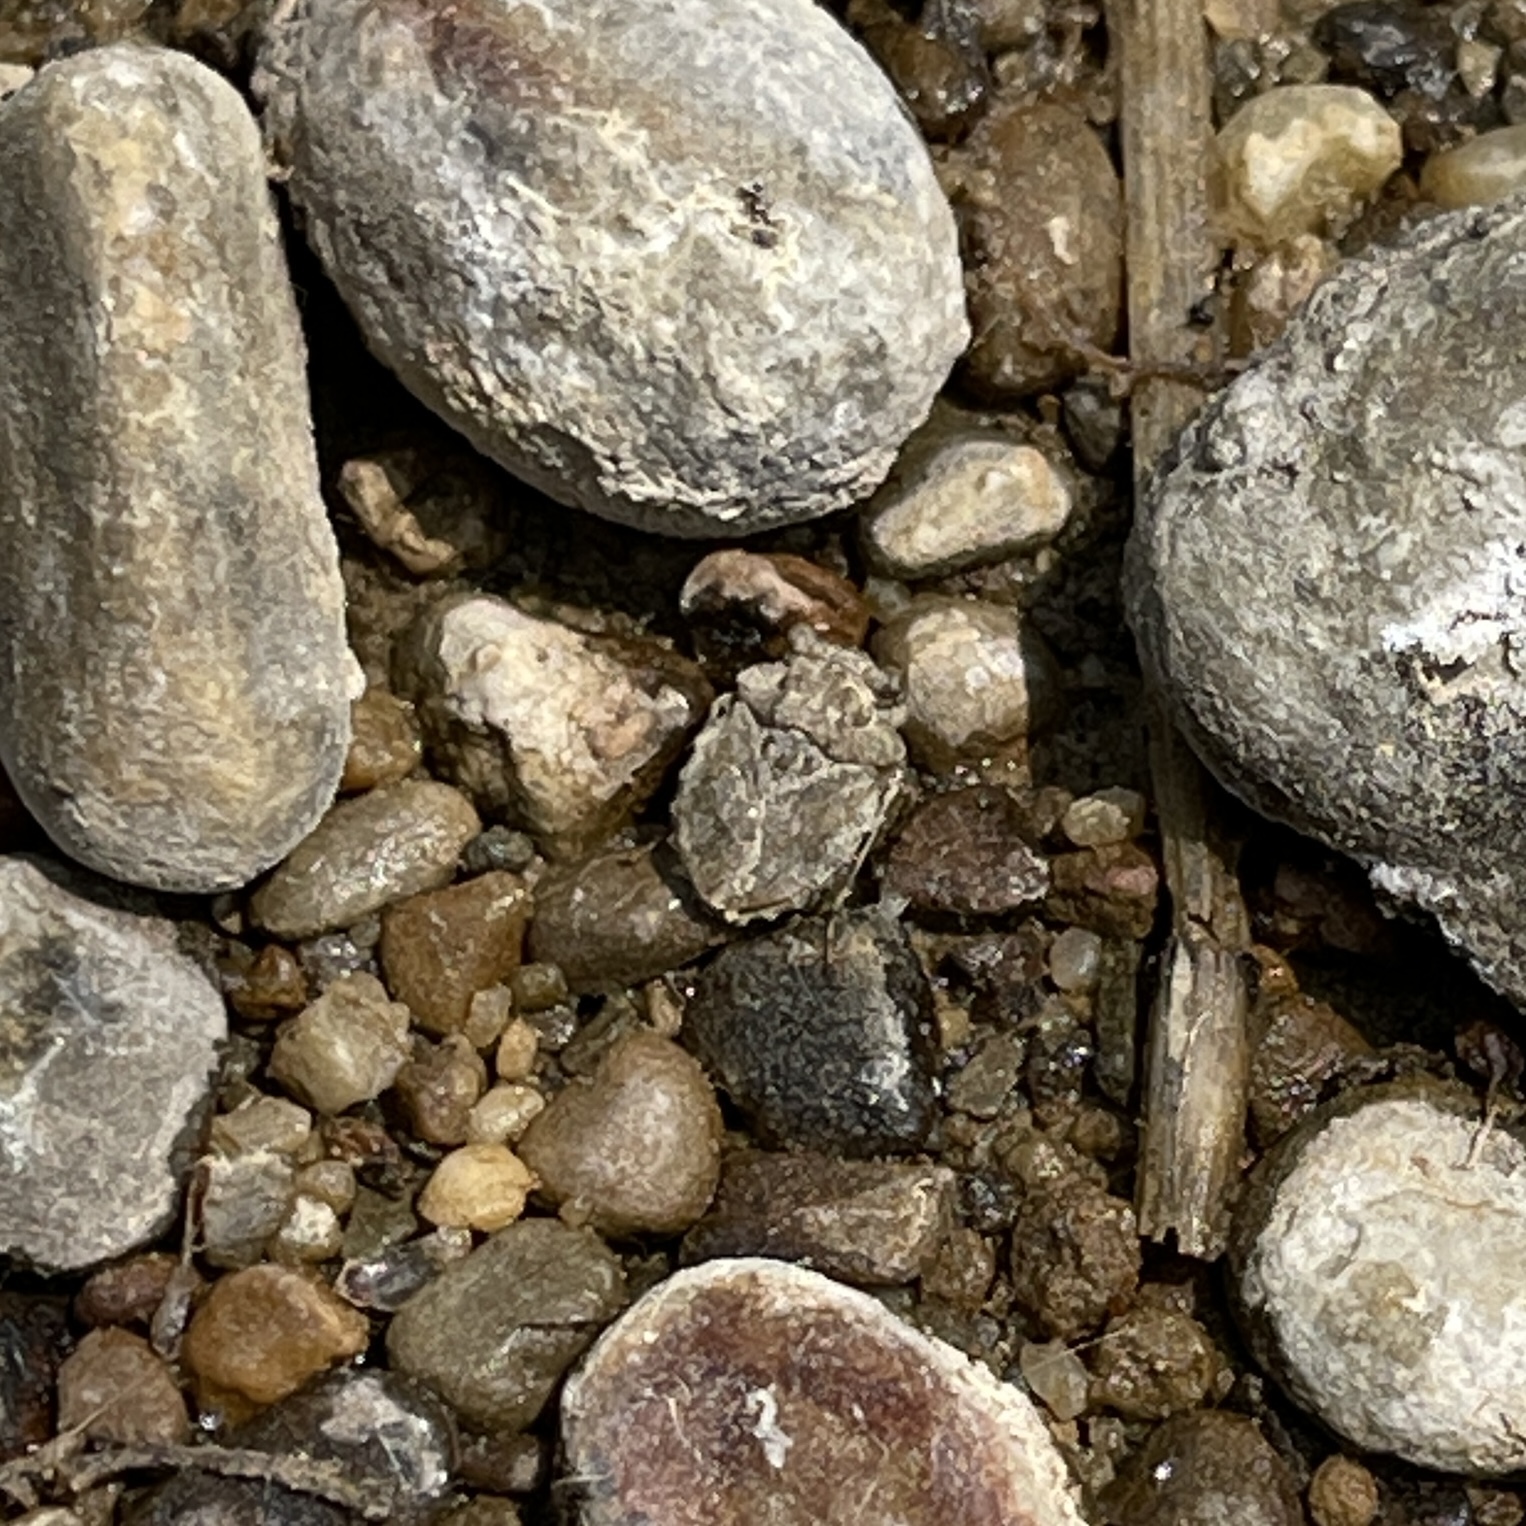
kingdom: Animalia
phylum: Arthropoda
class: Insecta
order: Hemiptera
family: Gelastocoridae
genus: Gelastocoris
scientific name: Gelastocoris oculatus
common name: Toad bug
